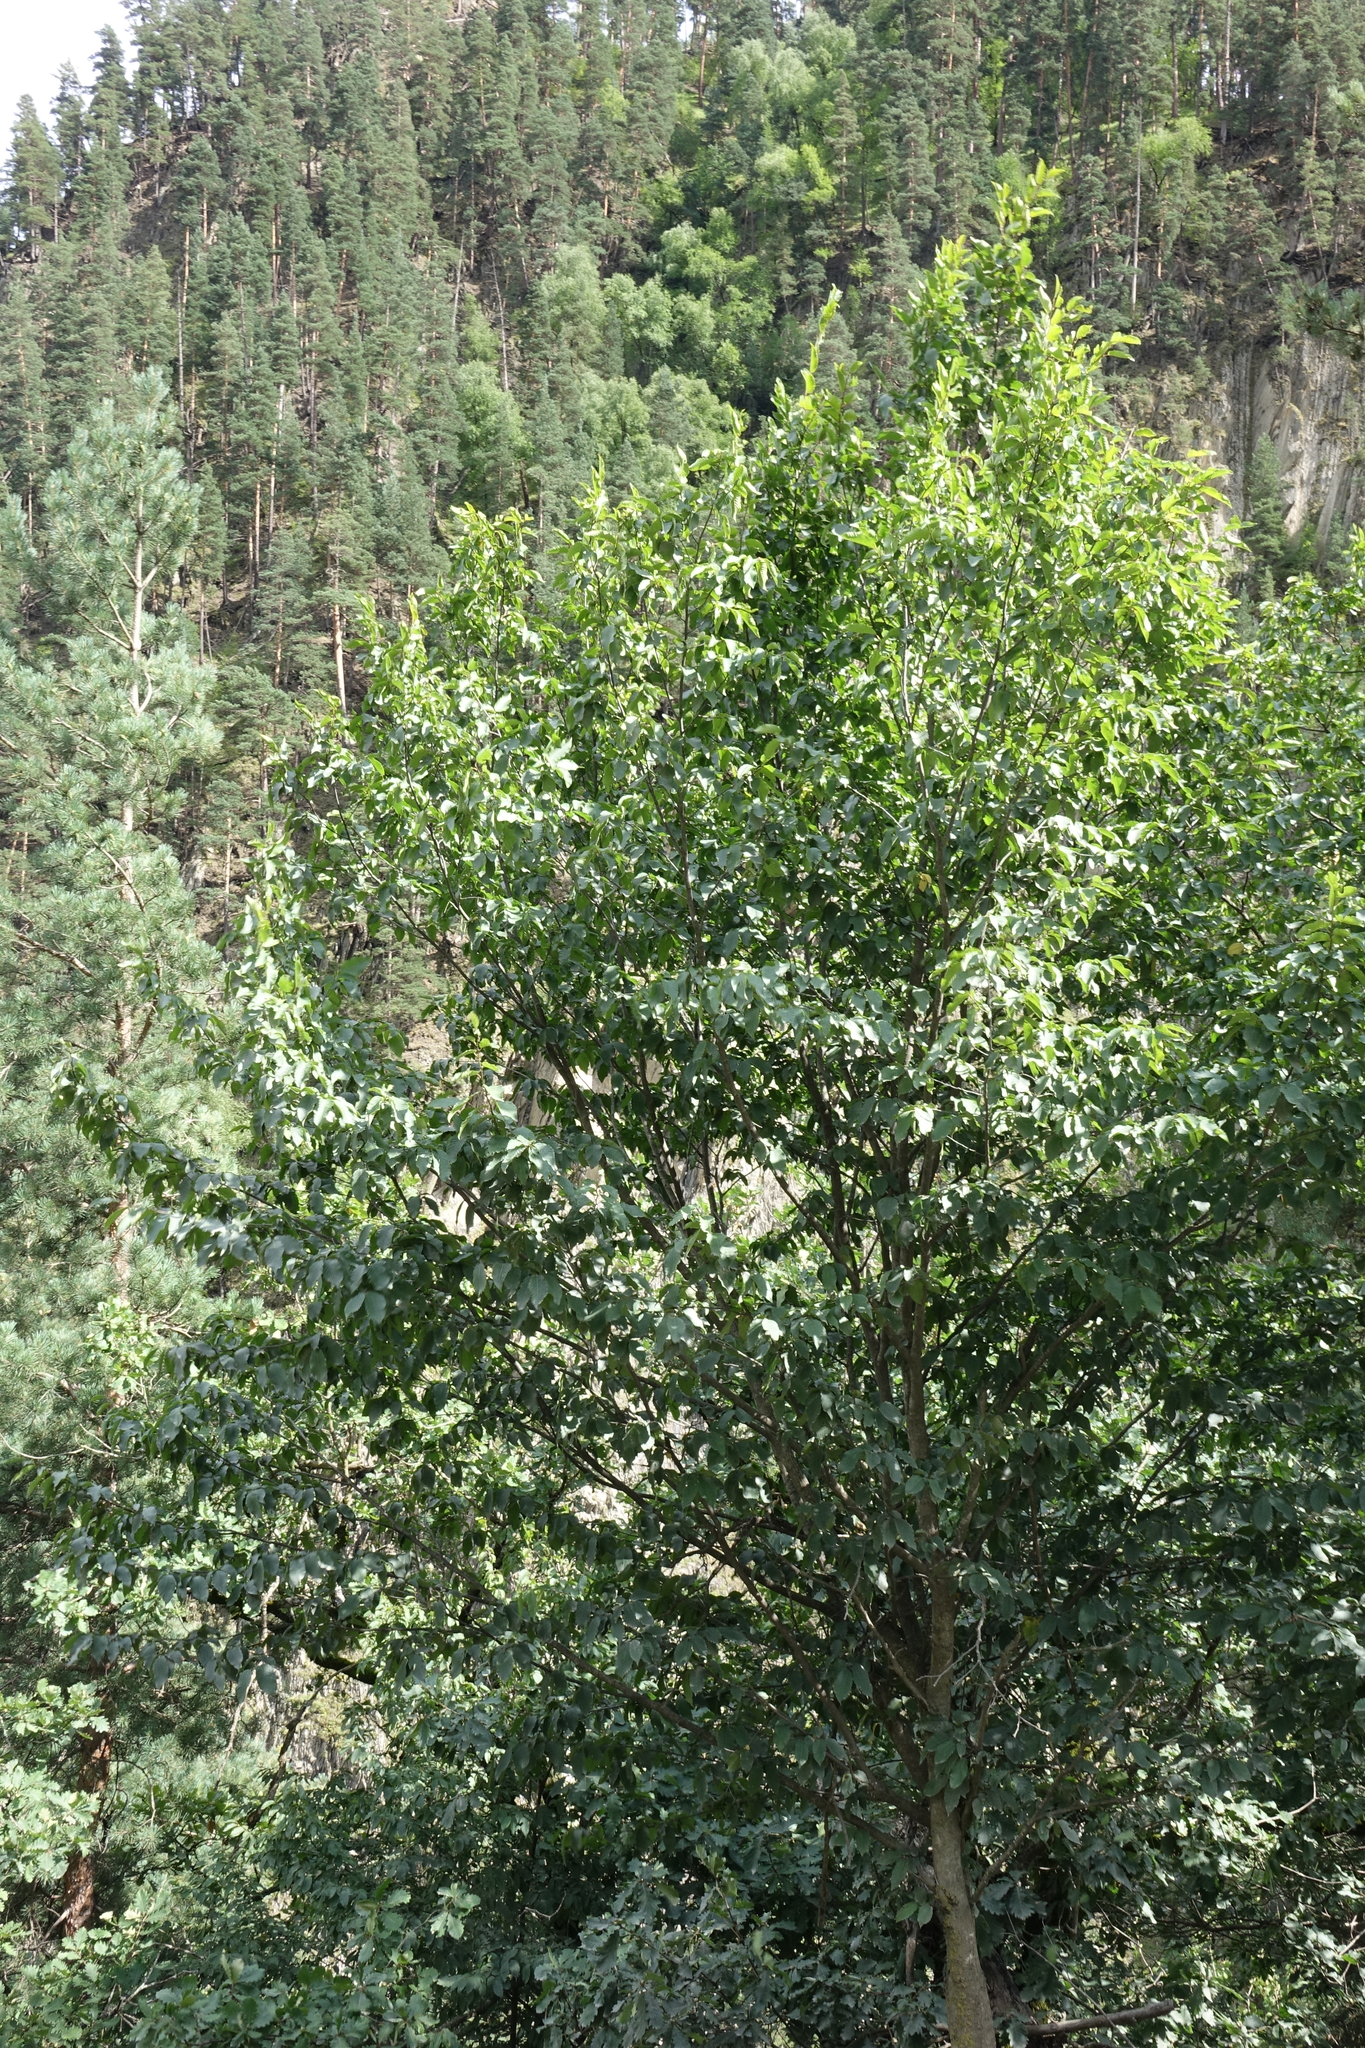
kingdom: Plantae
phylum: Tracheophyta
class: Magnoliopsida
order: Fagales
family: Betulaceae
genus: Carpinus
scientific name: Carpinus betulus
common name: Hornbeam
